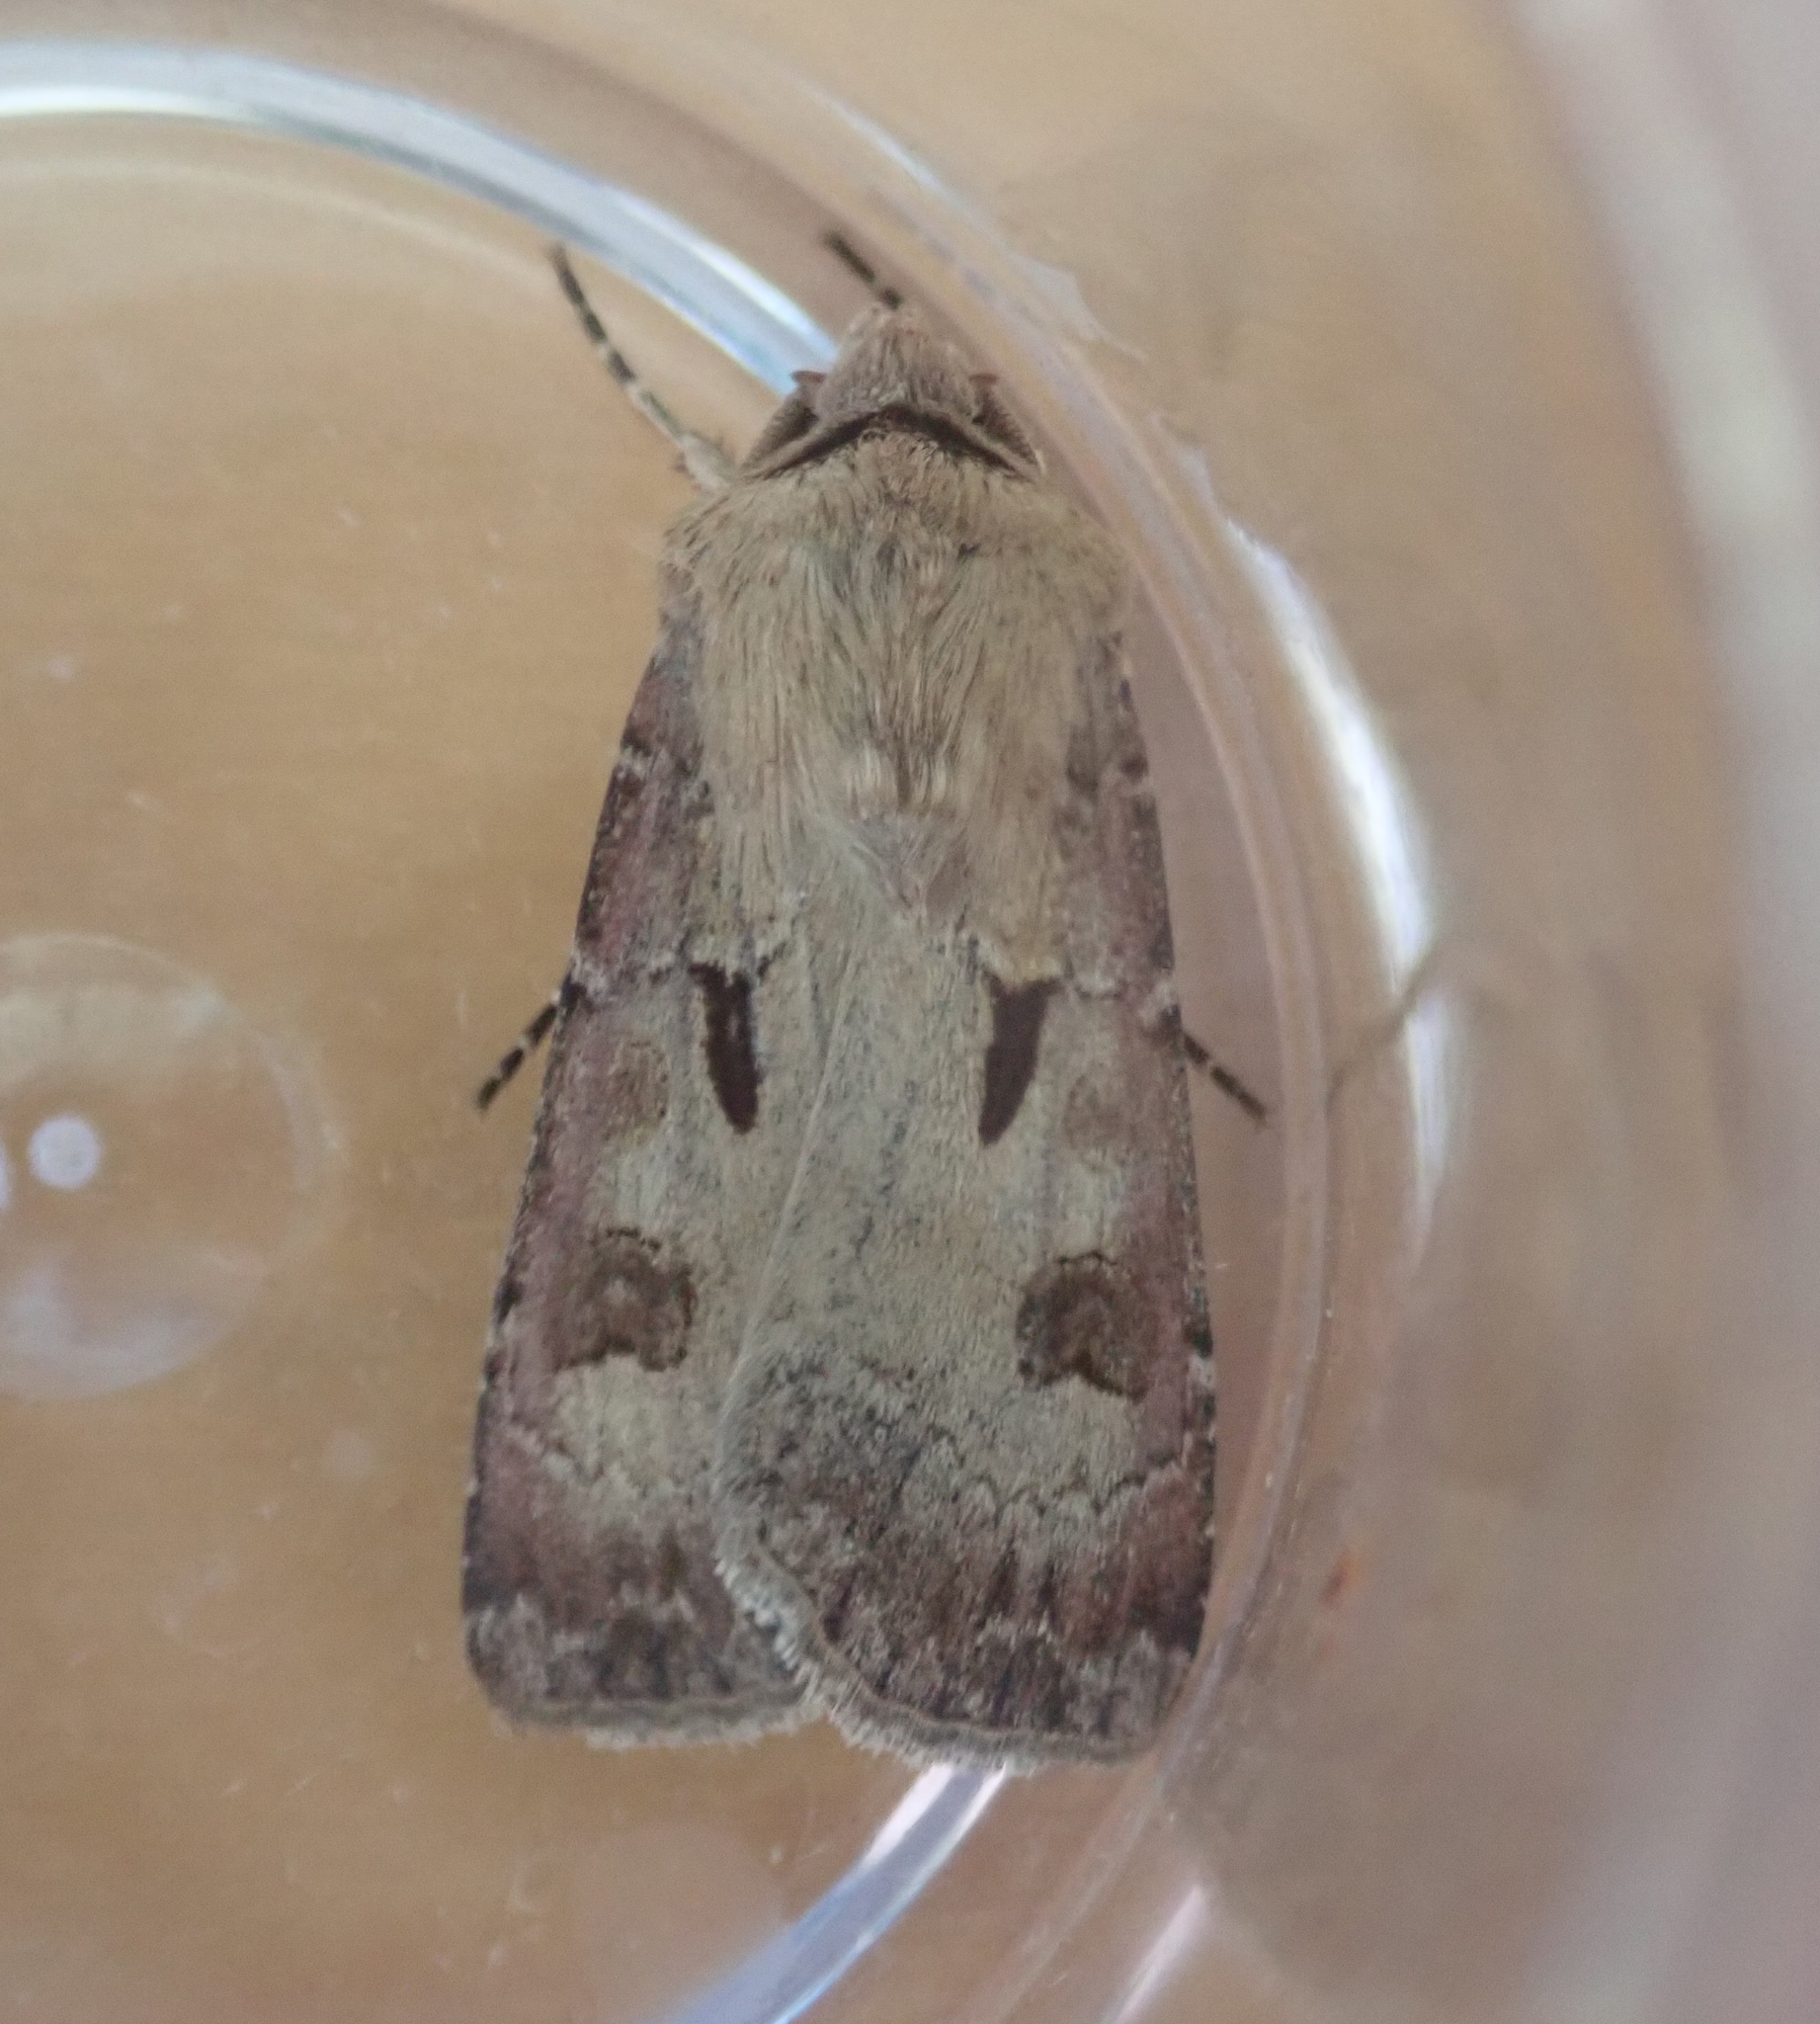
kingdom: Animalia
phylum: Arthropoda
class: Insecta
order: Lepidoptera
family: Noctuidae
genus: Agrotis
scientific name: Agrotis exclamationis
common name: Heart and dart
